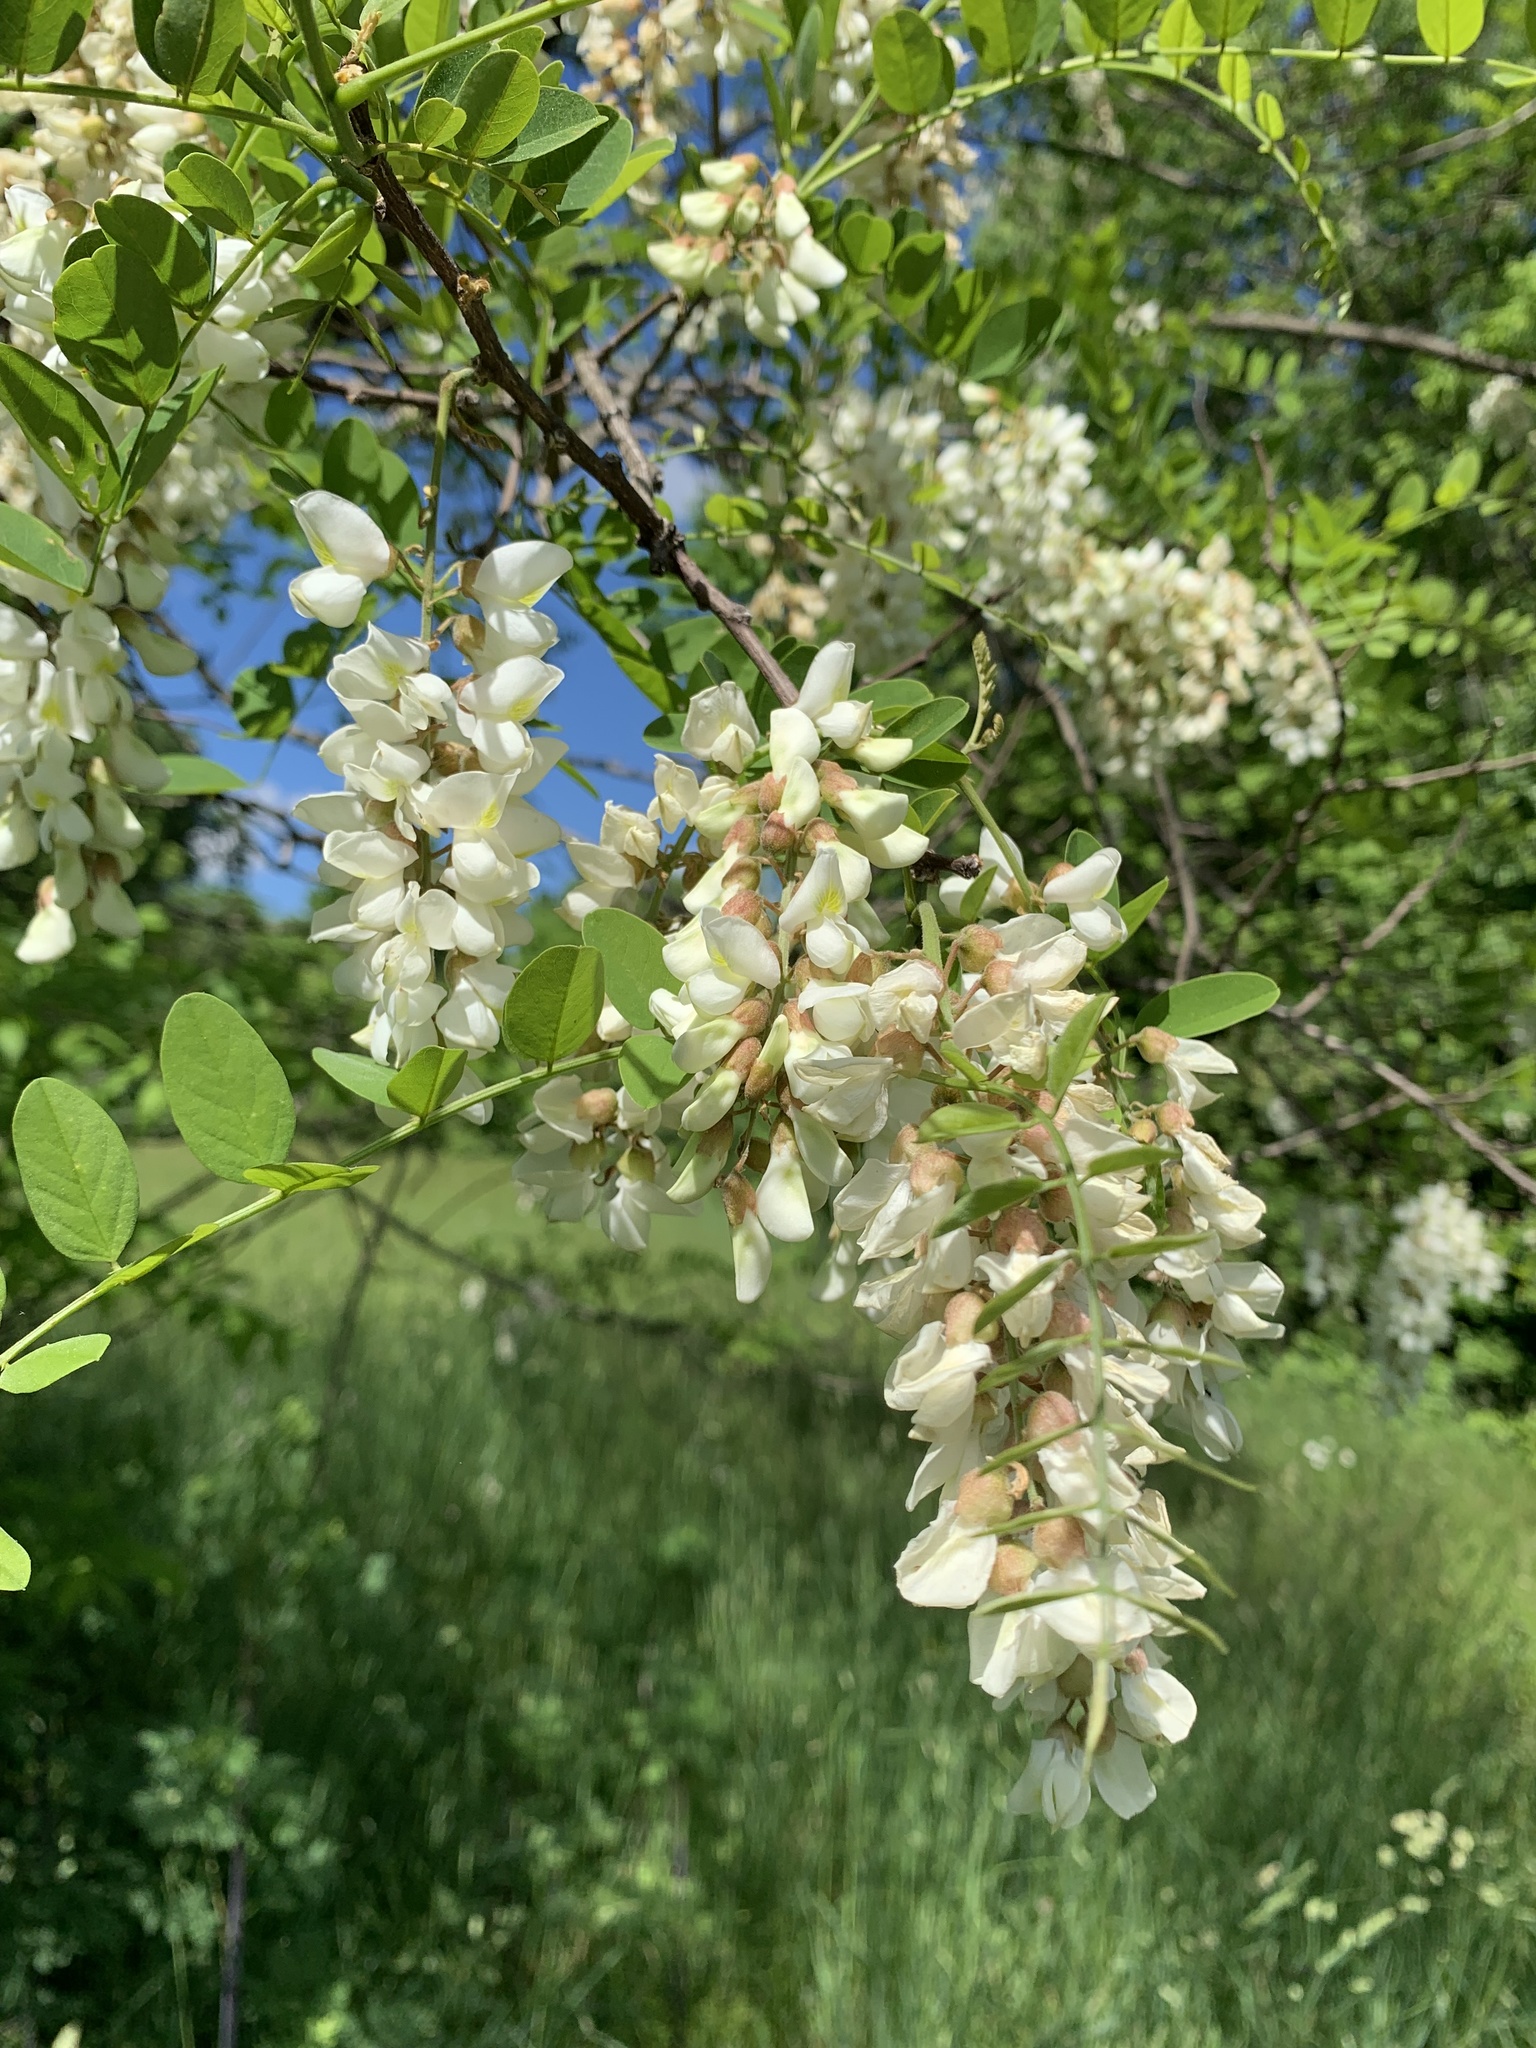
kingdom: Plantae
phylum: Tracheophyta
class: Magnoliopsida
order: Fabales
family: Fabaceae
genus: Robinia
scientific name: Robinia pseudoacacia
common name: Black locust
